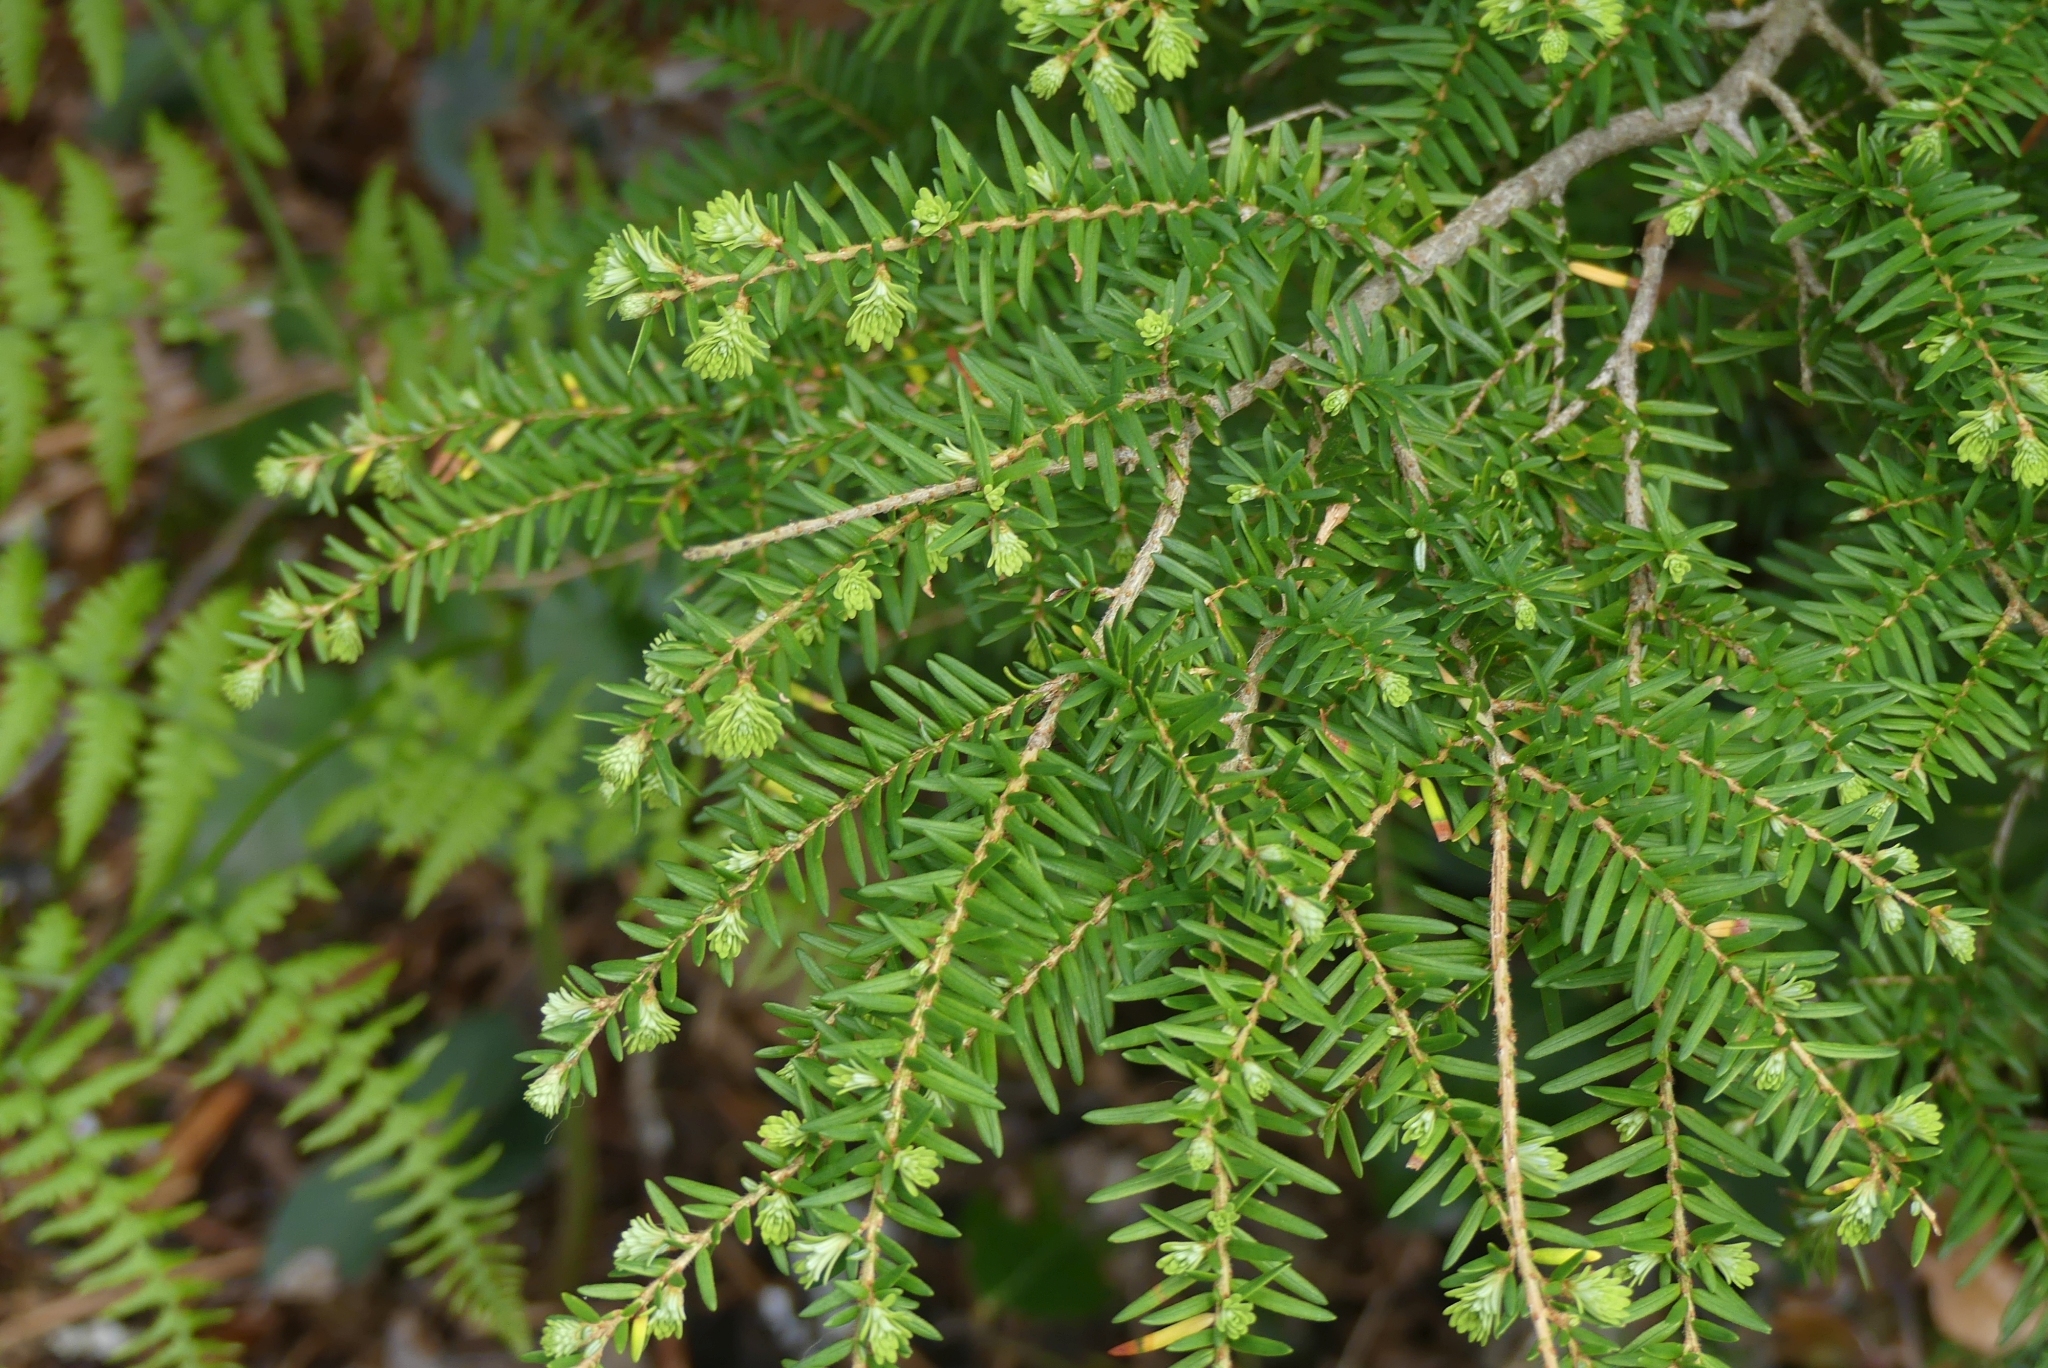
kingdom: Plantae
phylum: Tracheophyta
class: Pinopsida
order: Pinales
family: Pinaceae
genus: Tsuga
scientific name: Tsuga heterophylla
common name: Western hemlock
